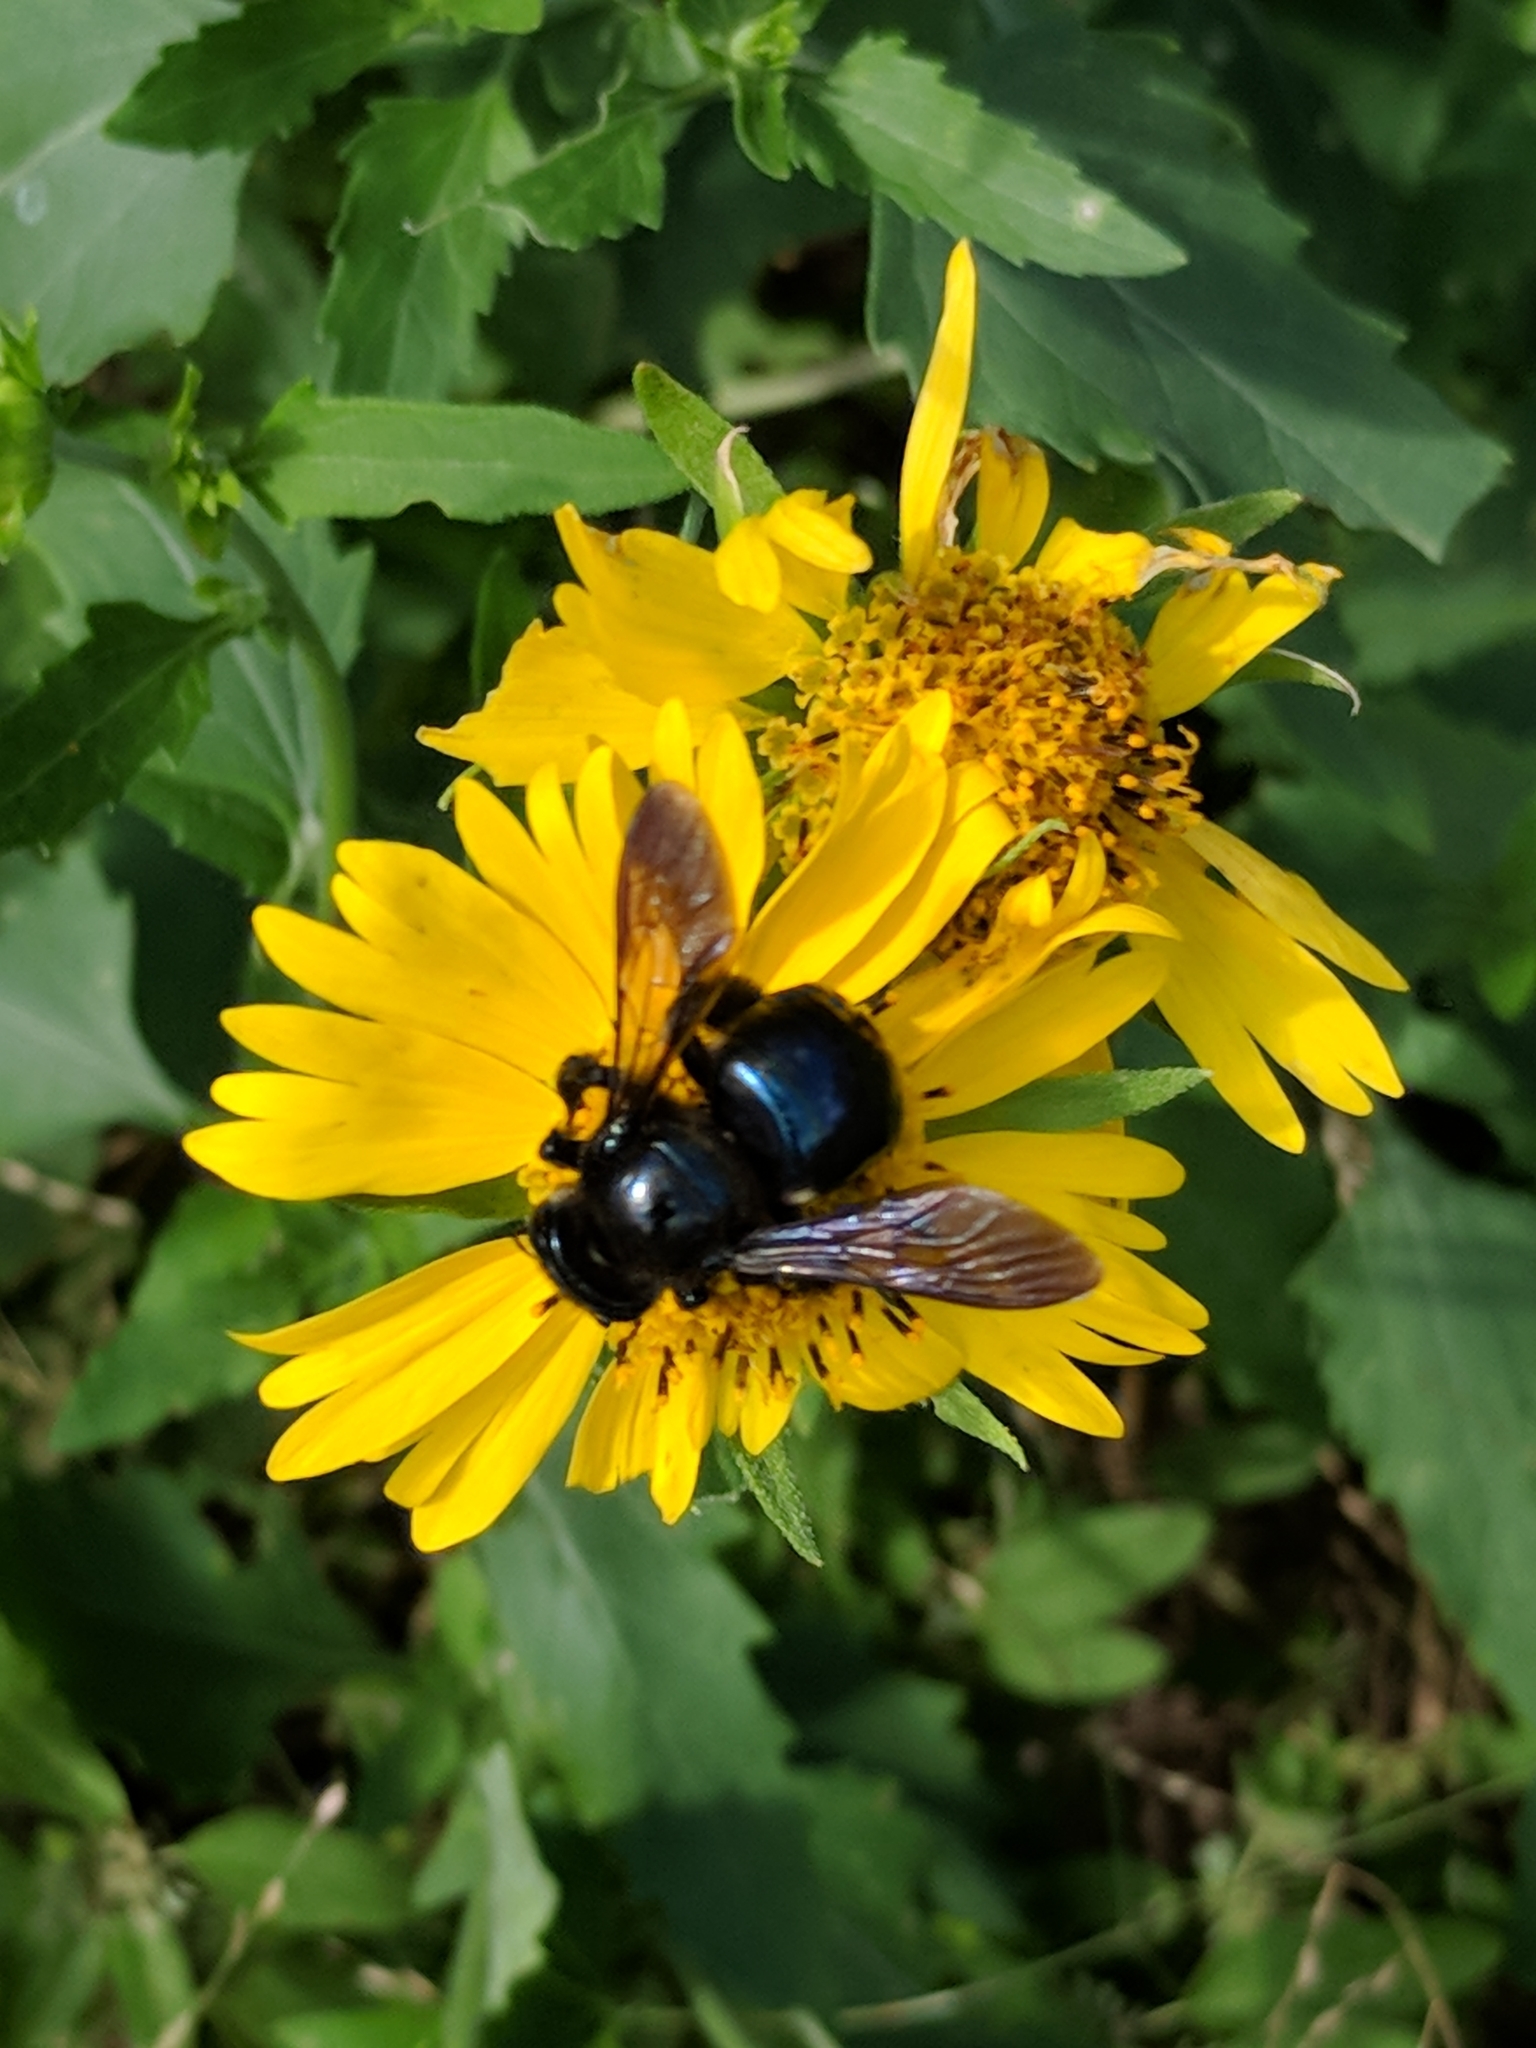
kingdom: Animalia
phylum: Arthropoda
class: Insecta
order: Hymenoptera
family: Apidae
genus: Xylocopa
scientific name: Xylocopa micans
